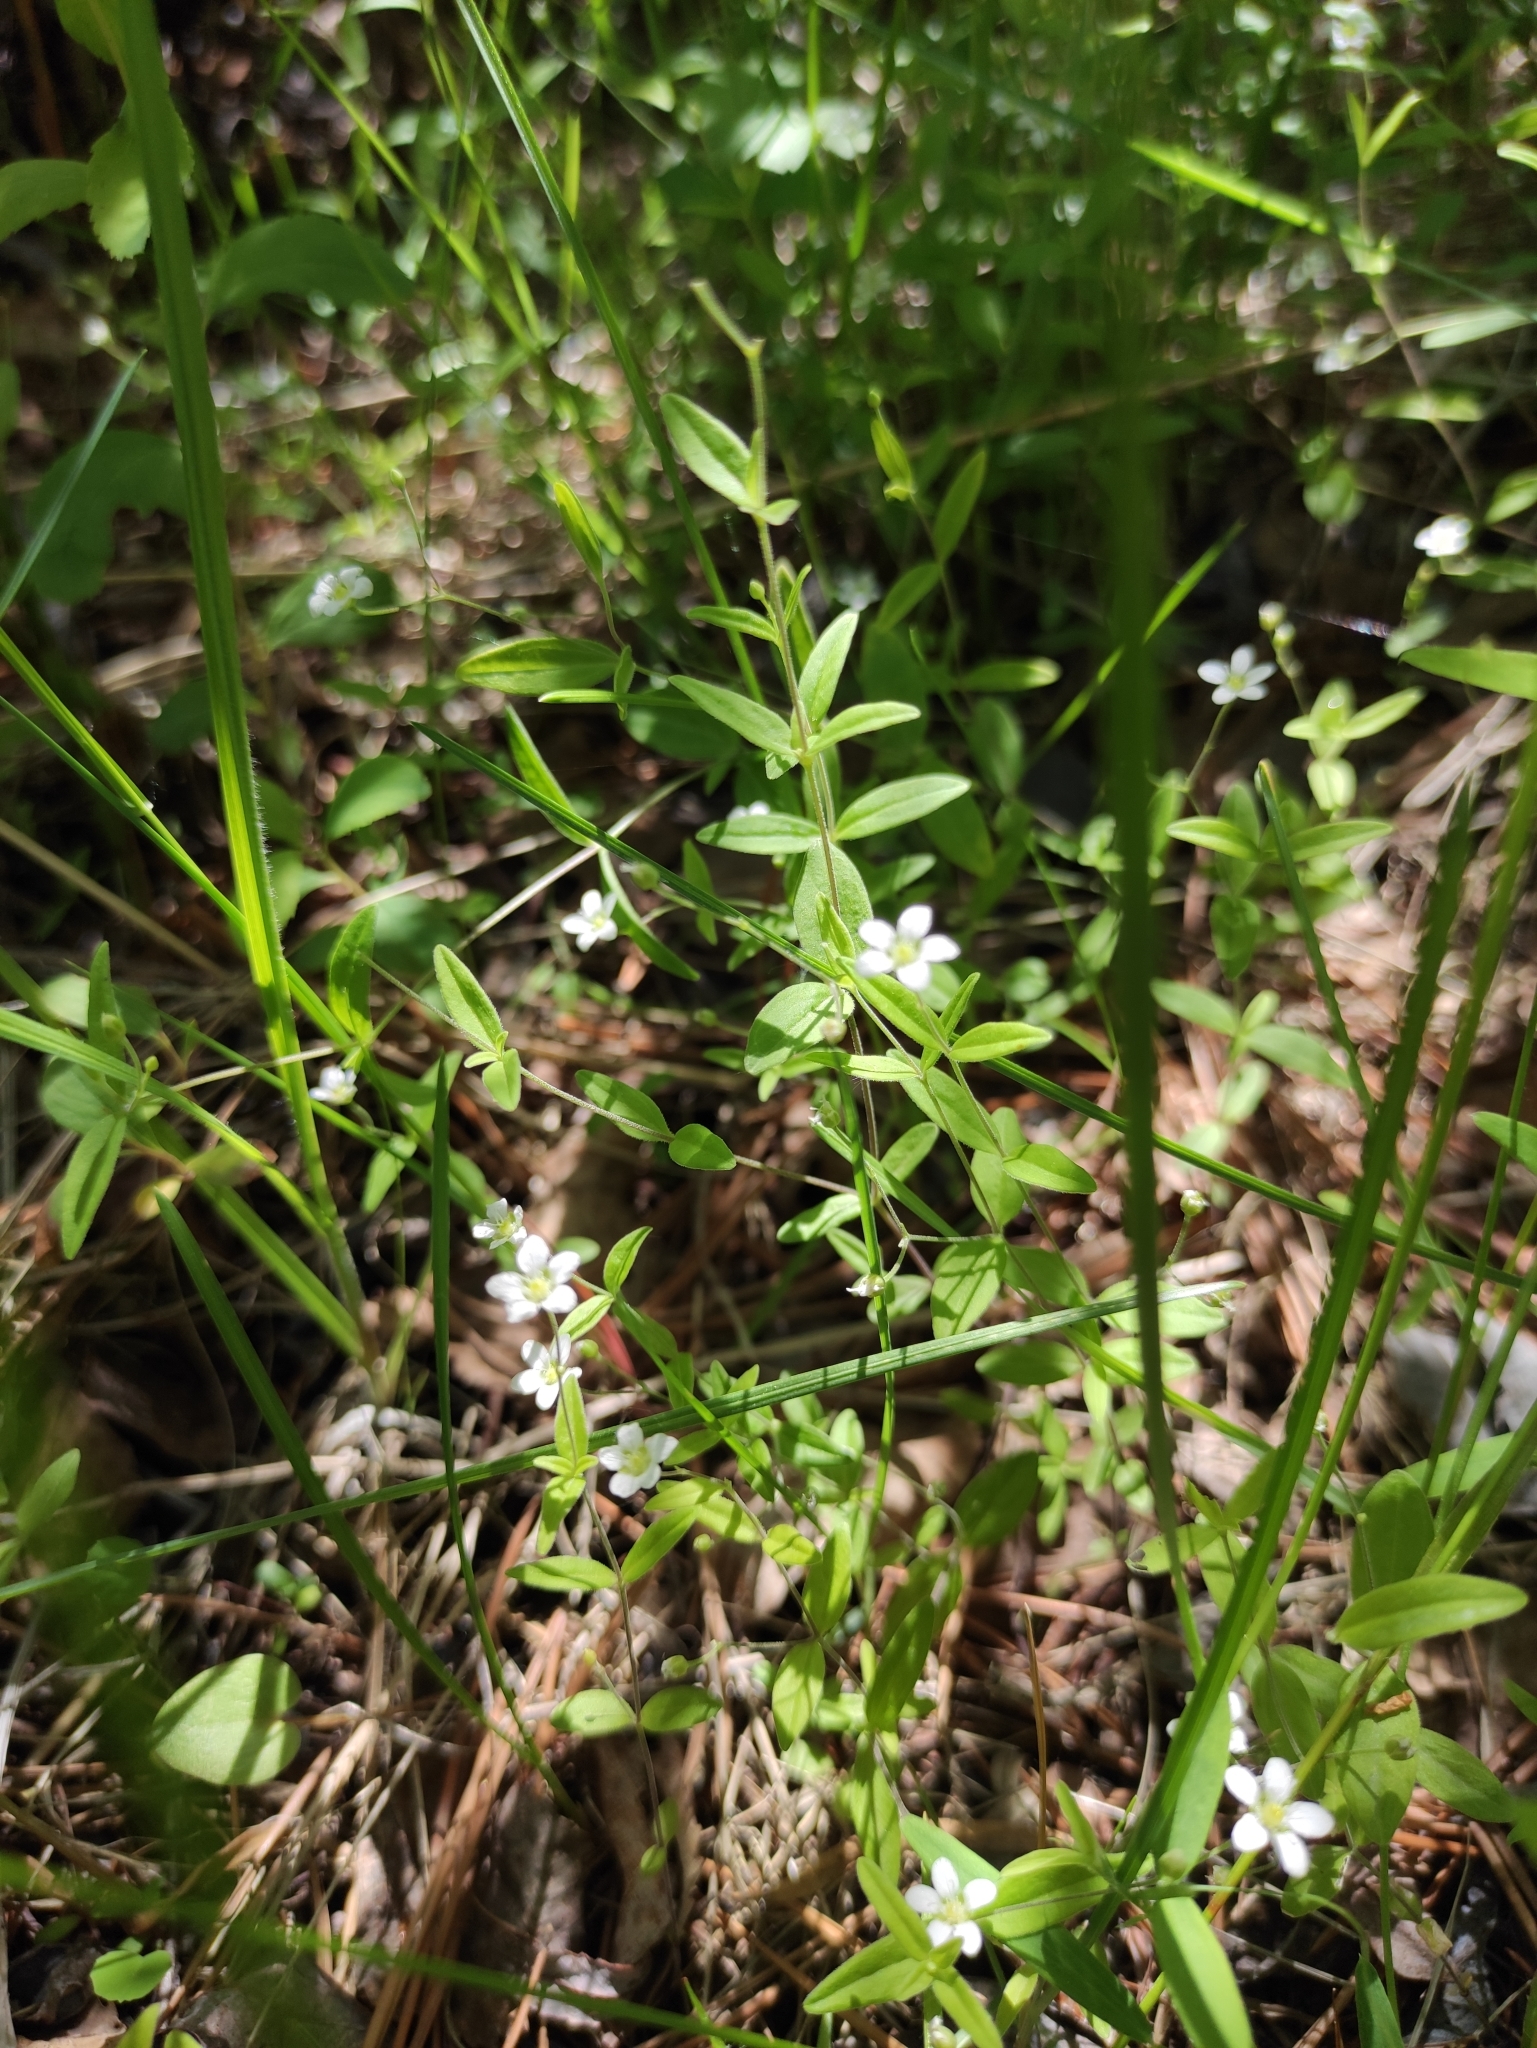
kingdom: Plantae
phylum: Tracheophyta
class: Magnoliopsida
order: Caryophyllales
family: Caryophyllaceae
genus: Moehringia
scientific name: Moehringia lateriflora
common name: Blunt-leaved sandwort
